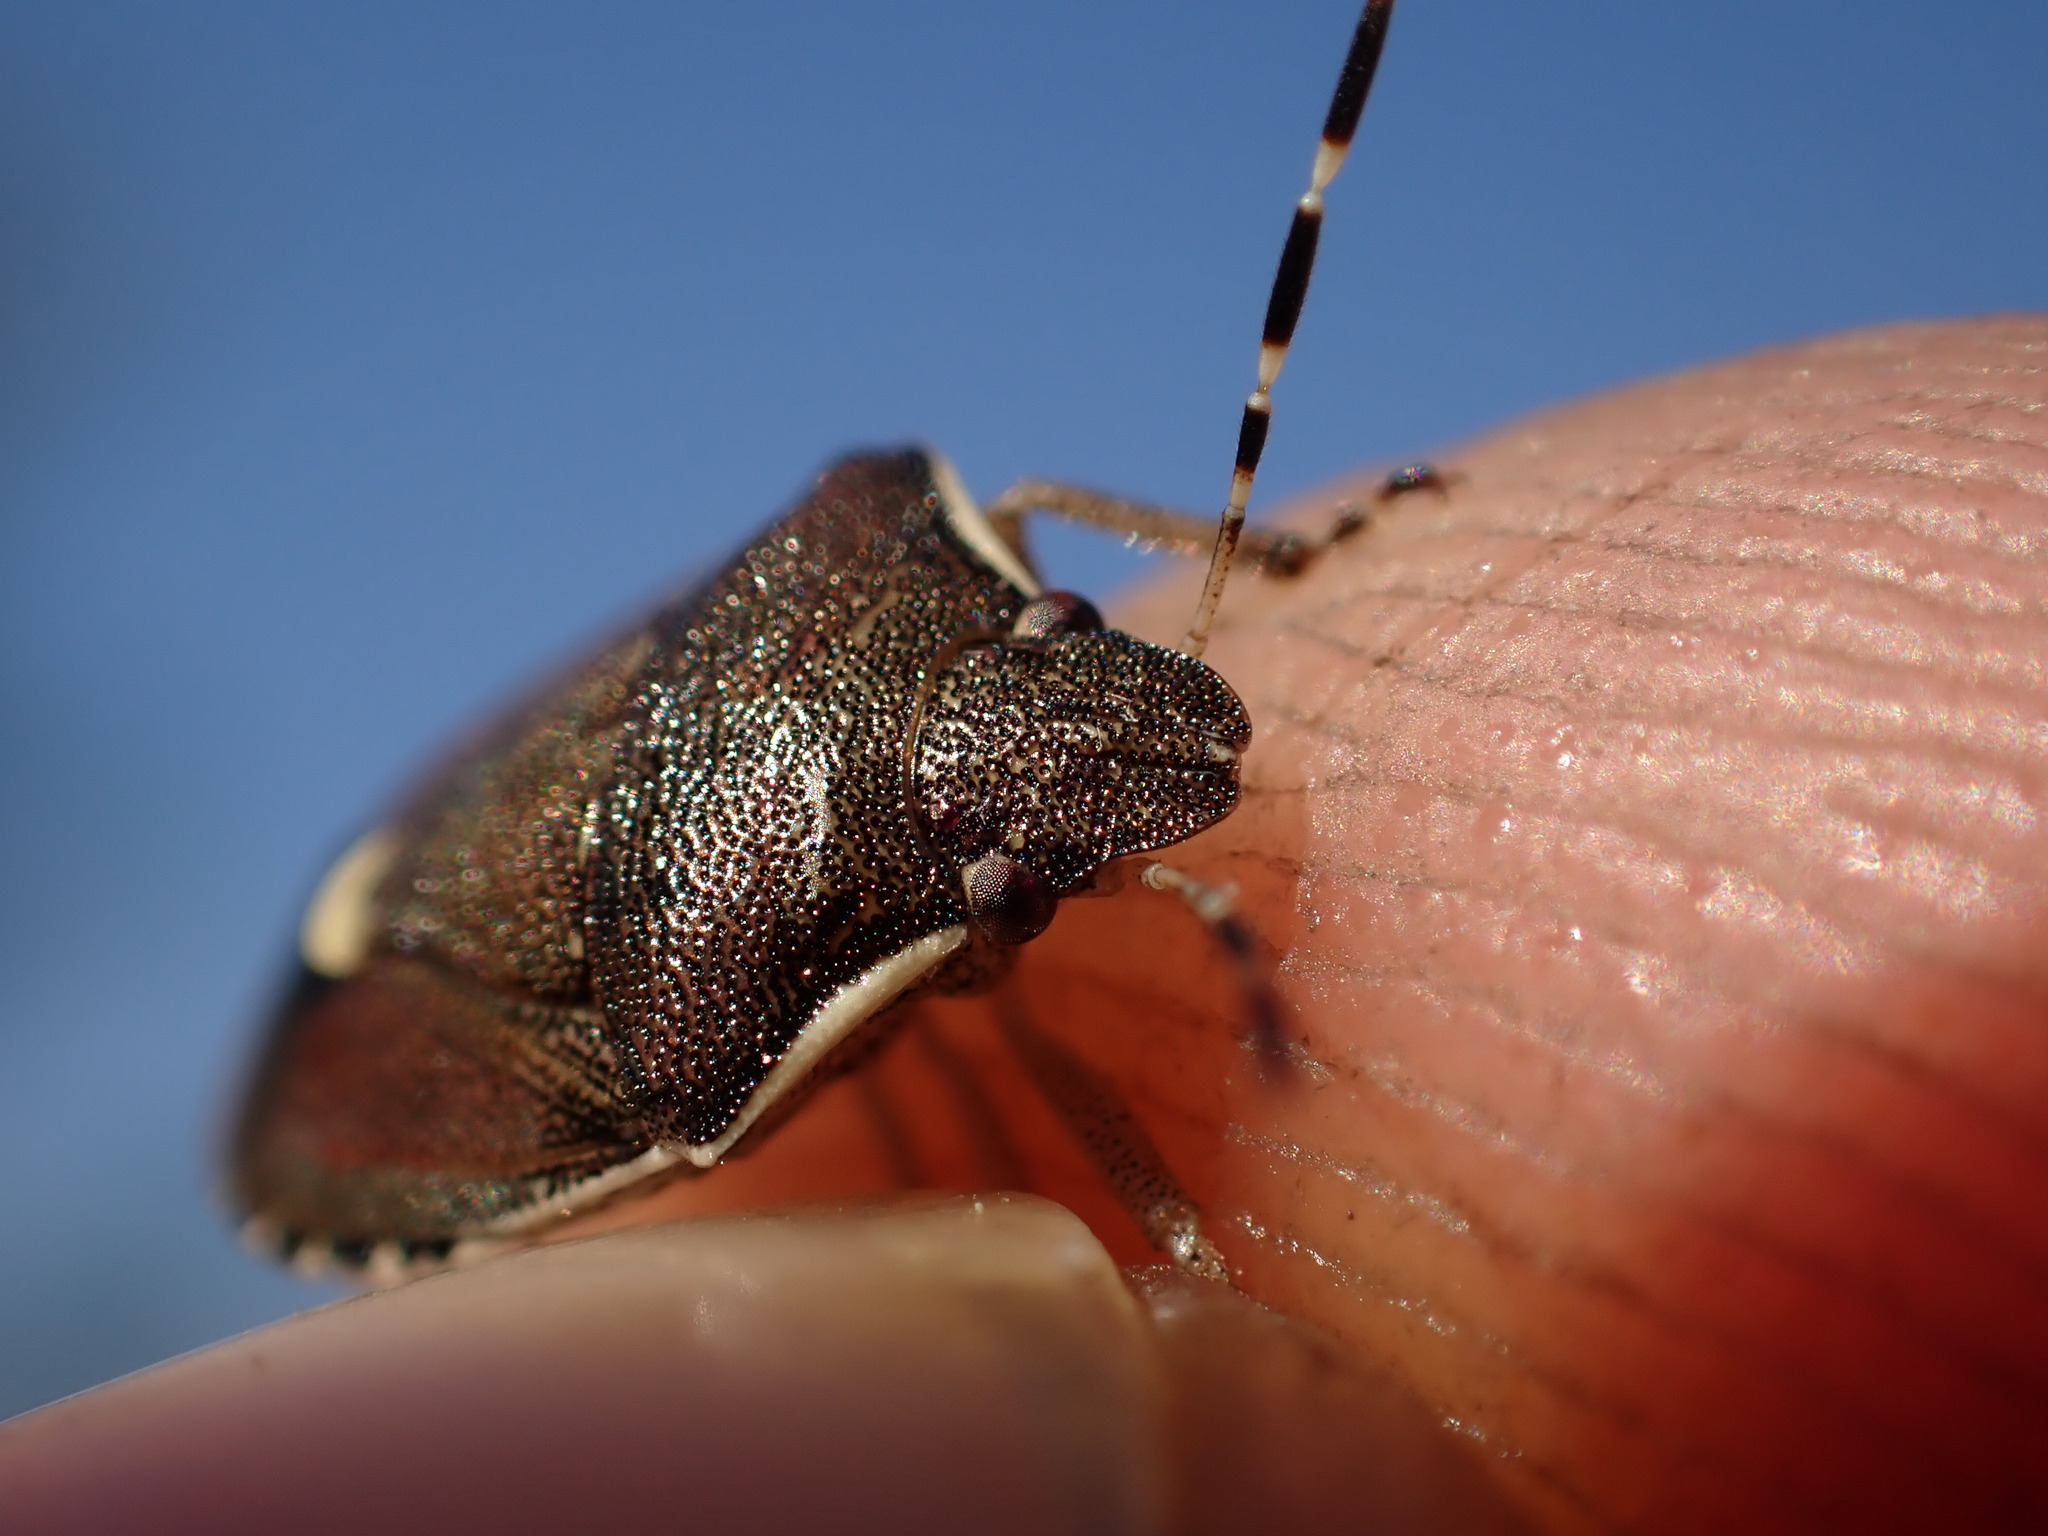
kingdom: Animalia
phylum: Arthropoda
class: Insecta
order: Hemiptera
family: Pentatomidae
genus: Holcostethus
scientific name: Holcostethus sphacelatus
